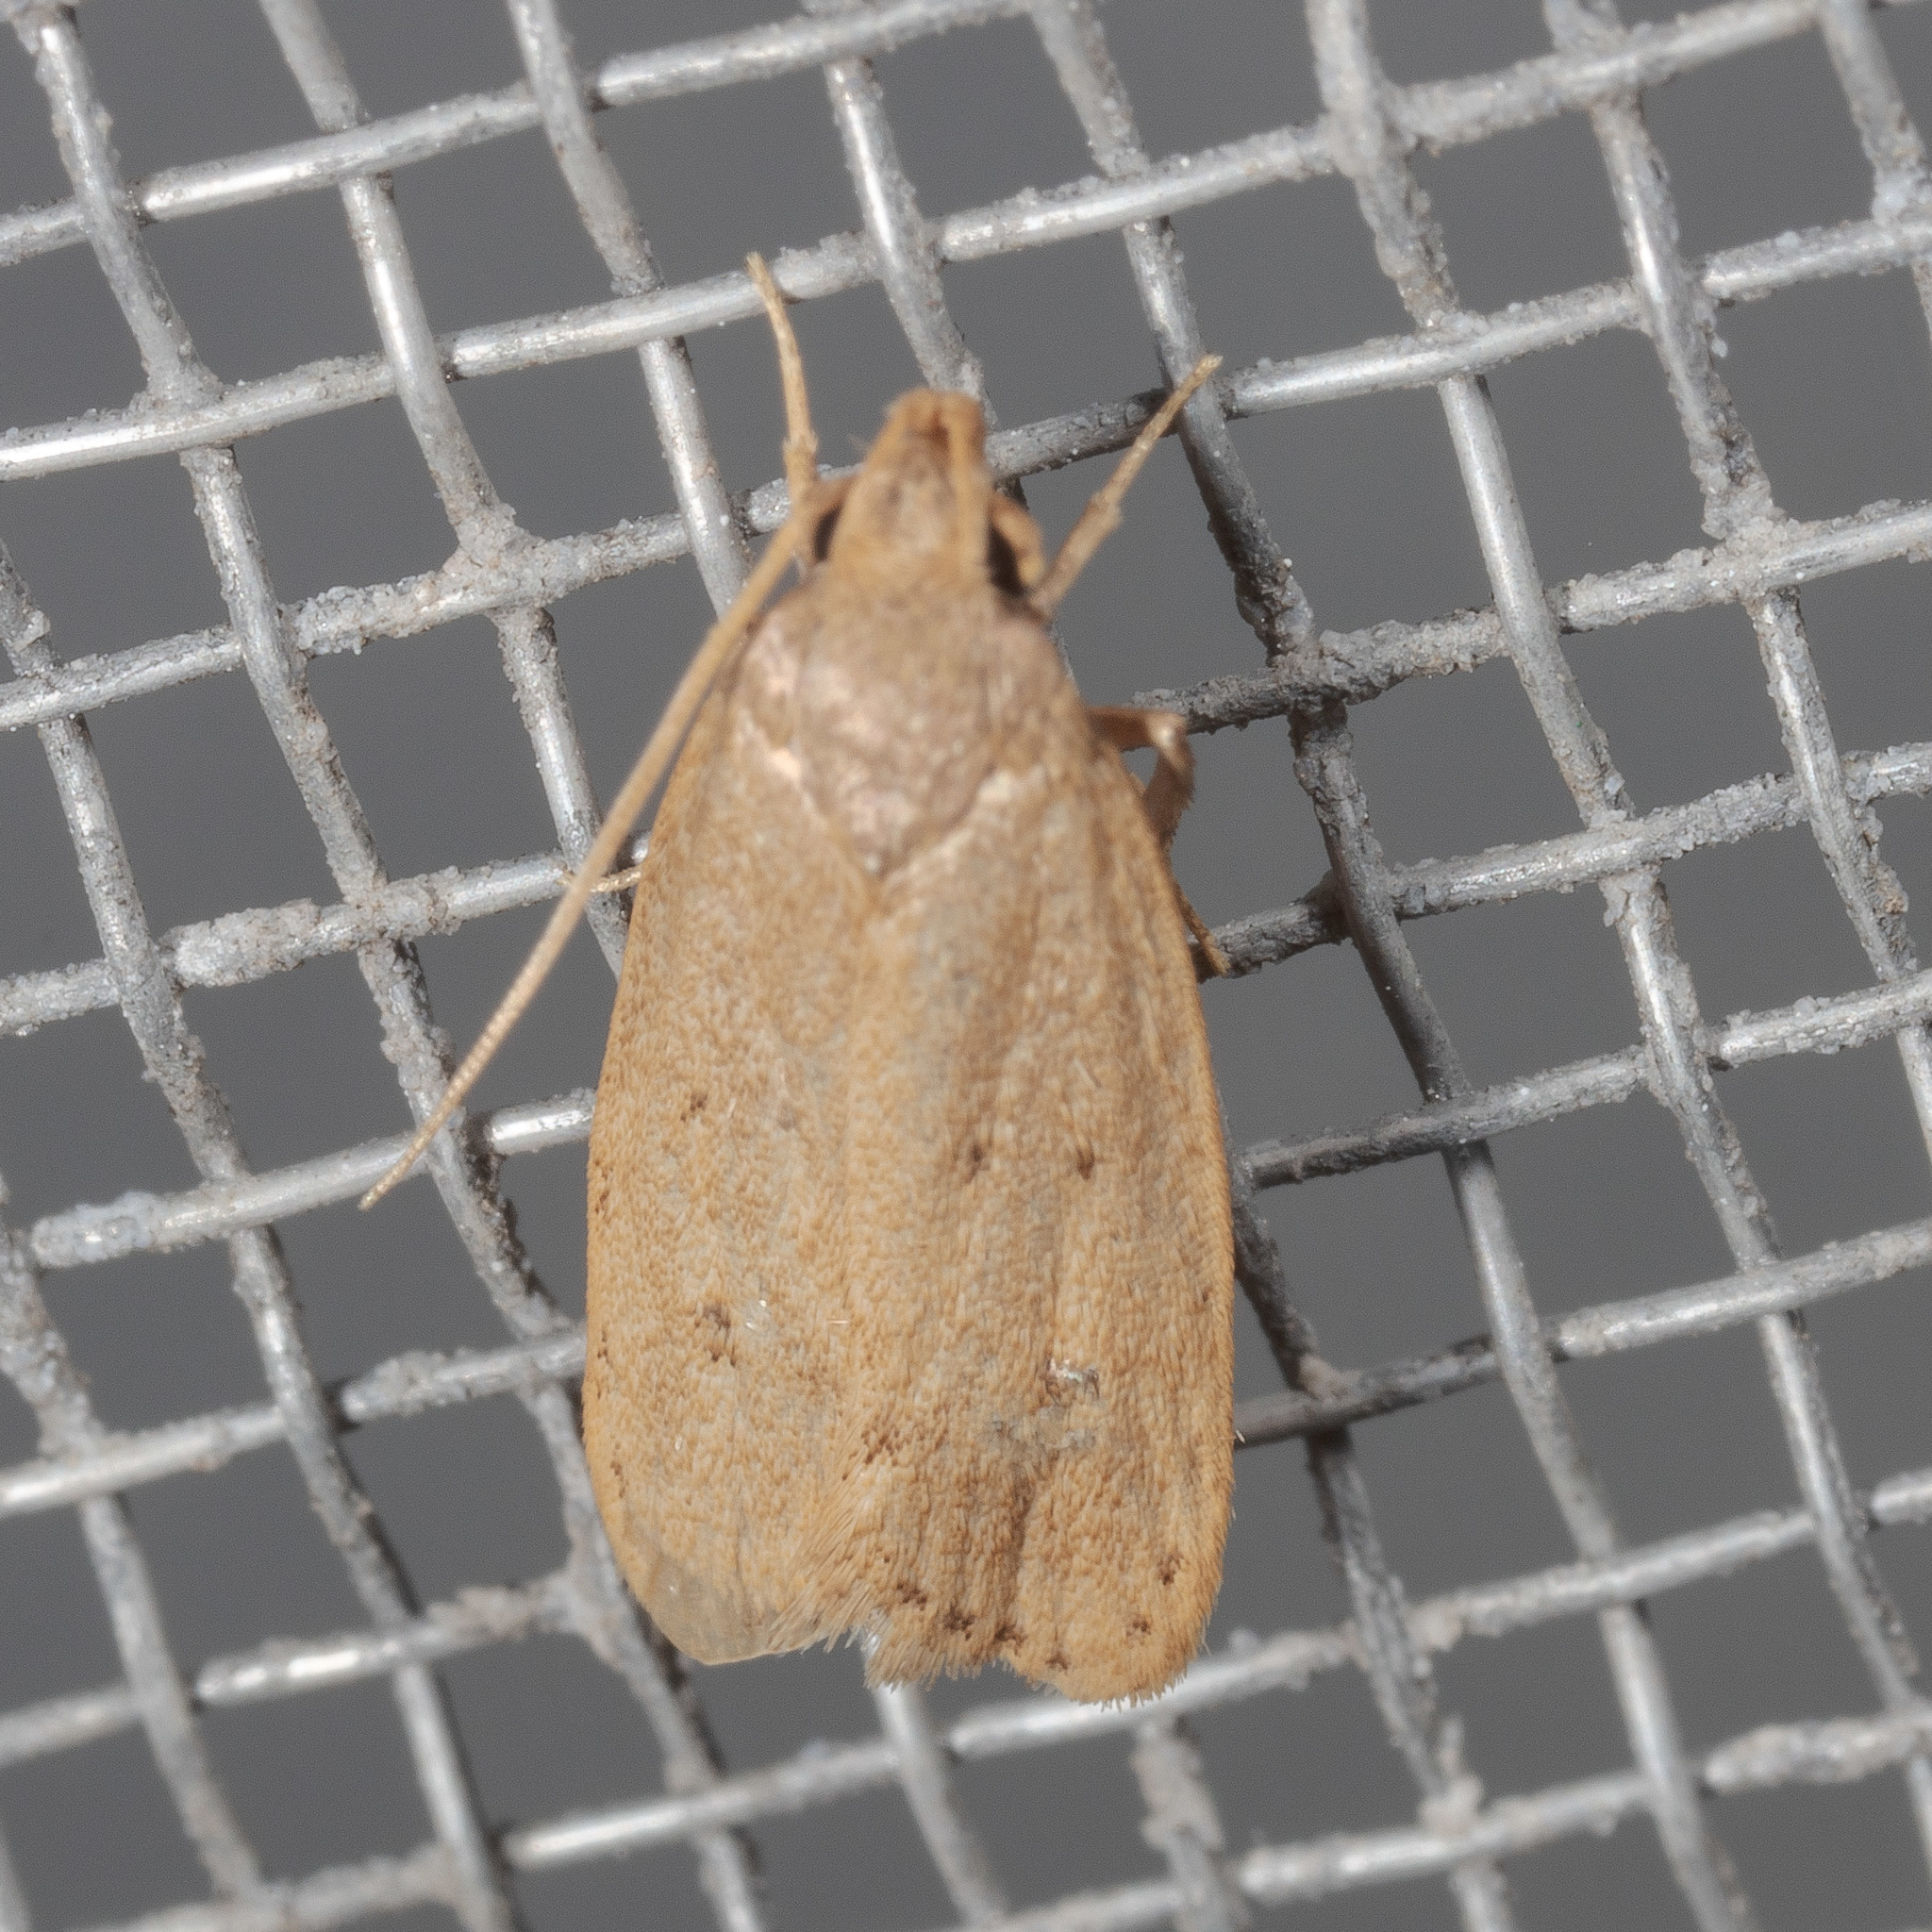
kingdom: Animalia
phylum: Arthropoda
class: Insecta
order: Lepidoptera
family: Autostichidae
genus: Autosticha
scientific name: Autosticha kyotensis
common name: Kyoto moth
